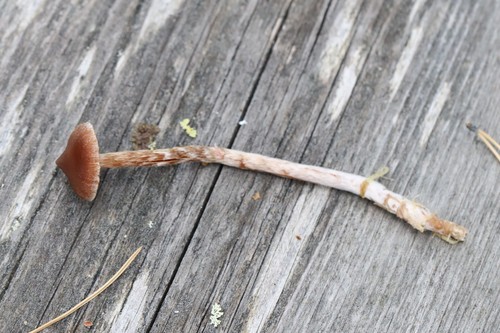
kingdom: Fungi
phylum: Basidiomycota
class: Agaricomycetes
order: Agaricales
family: Cortinariaceae
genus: Cortinarius
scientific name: Cortinarius flos-paludis
